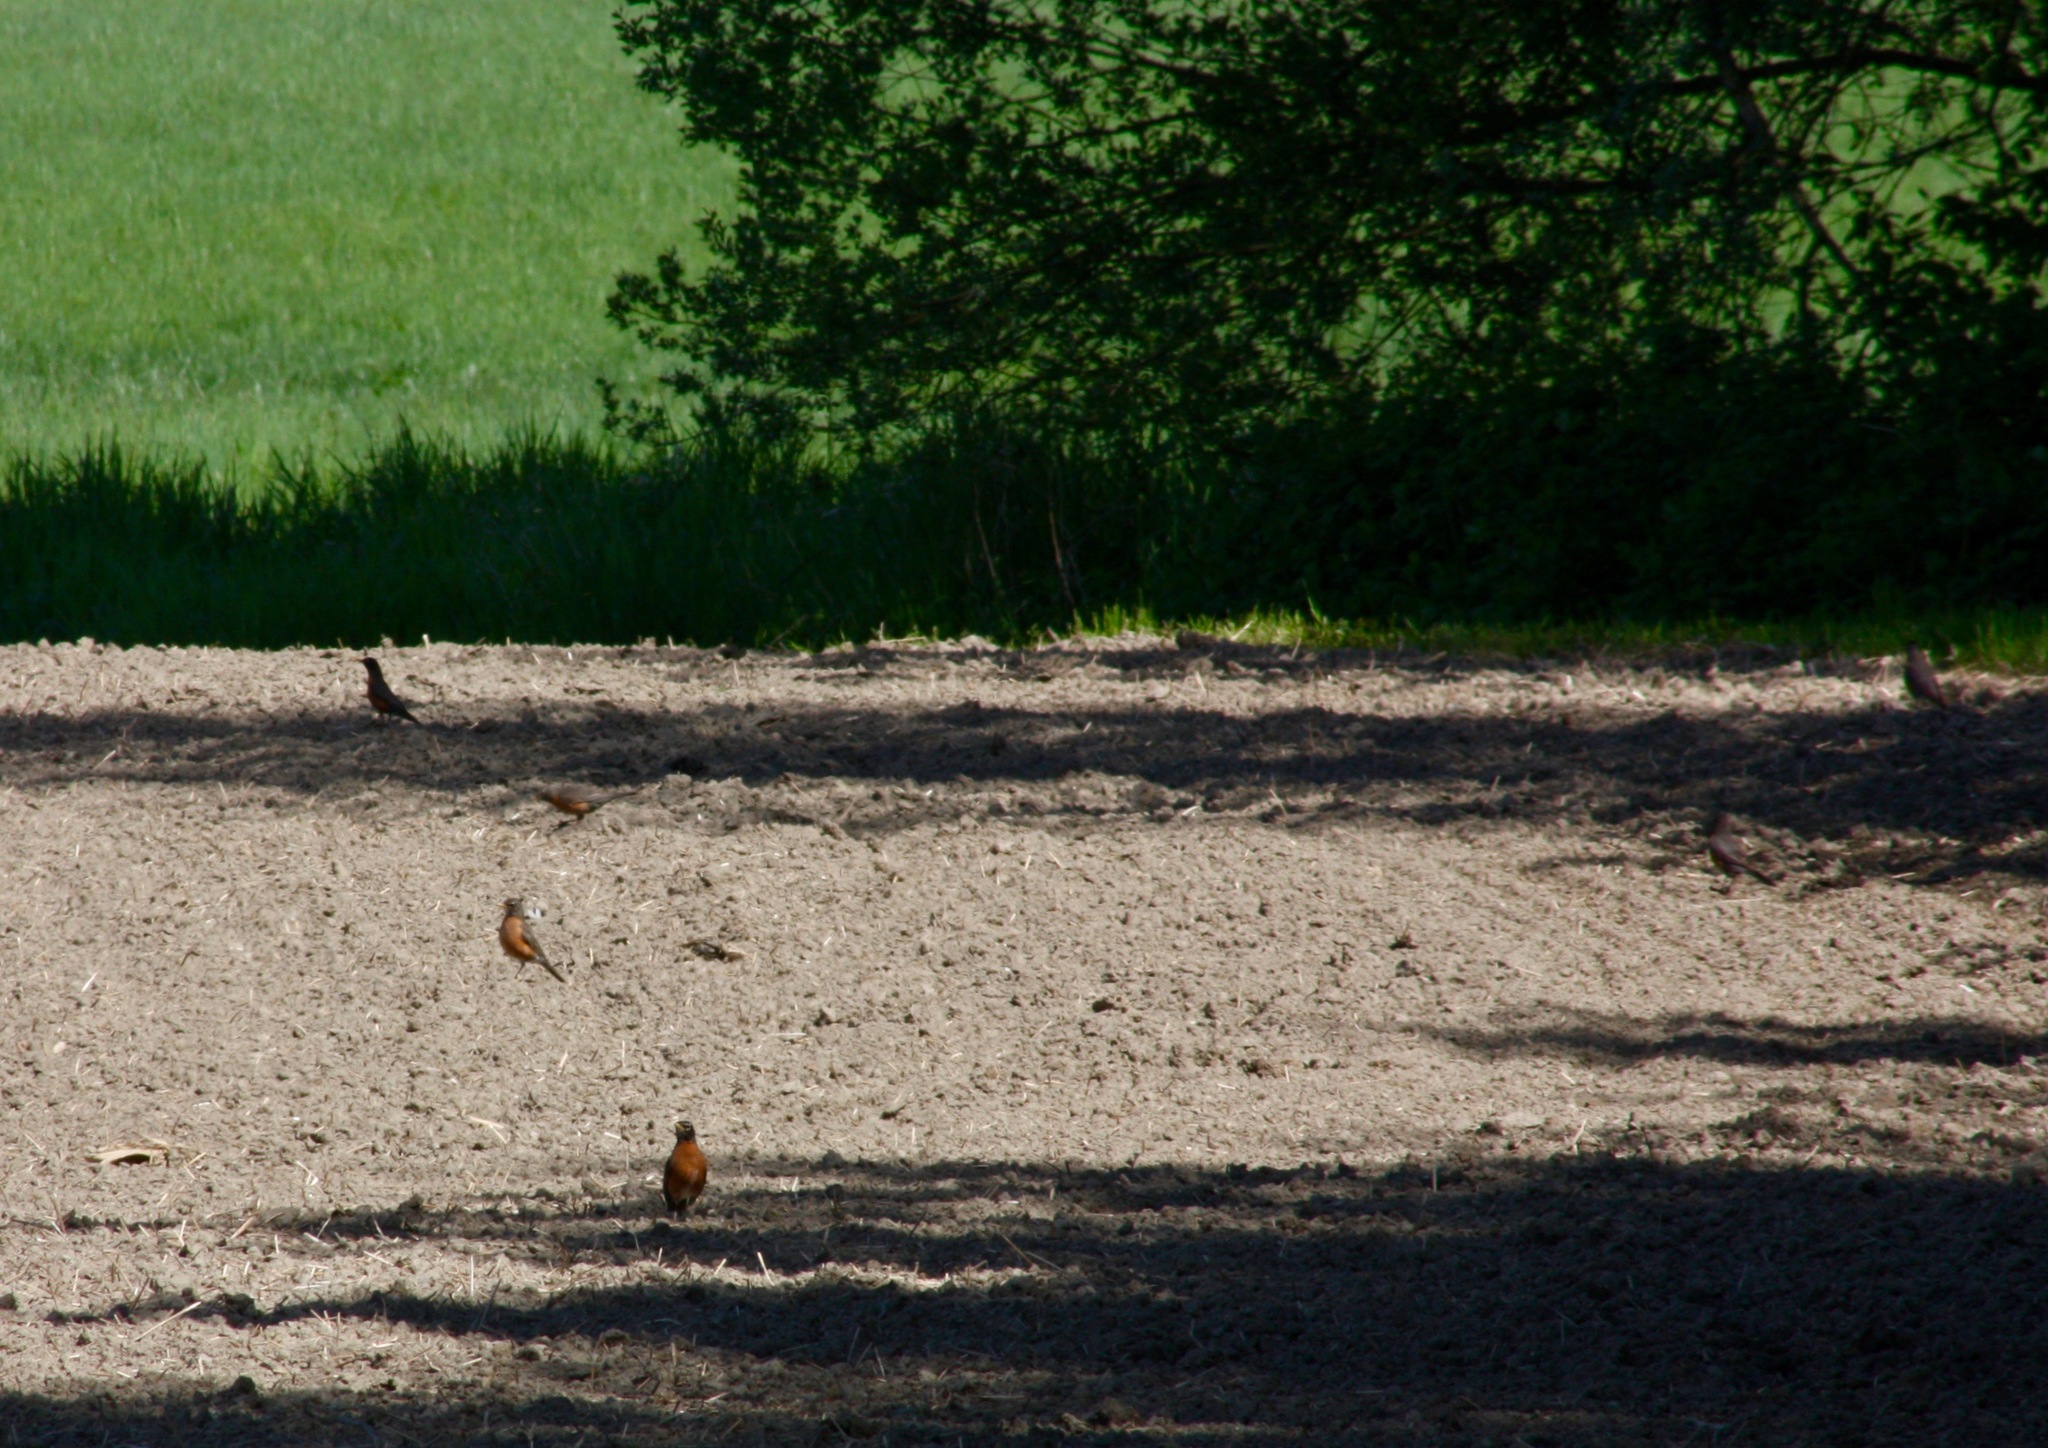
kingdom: Animalia
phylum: Chordata
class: Aves
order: Passeriformes
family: Turdidae
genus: Turdus
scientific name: Turdus migratorius
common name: American robin
